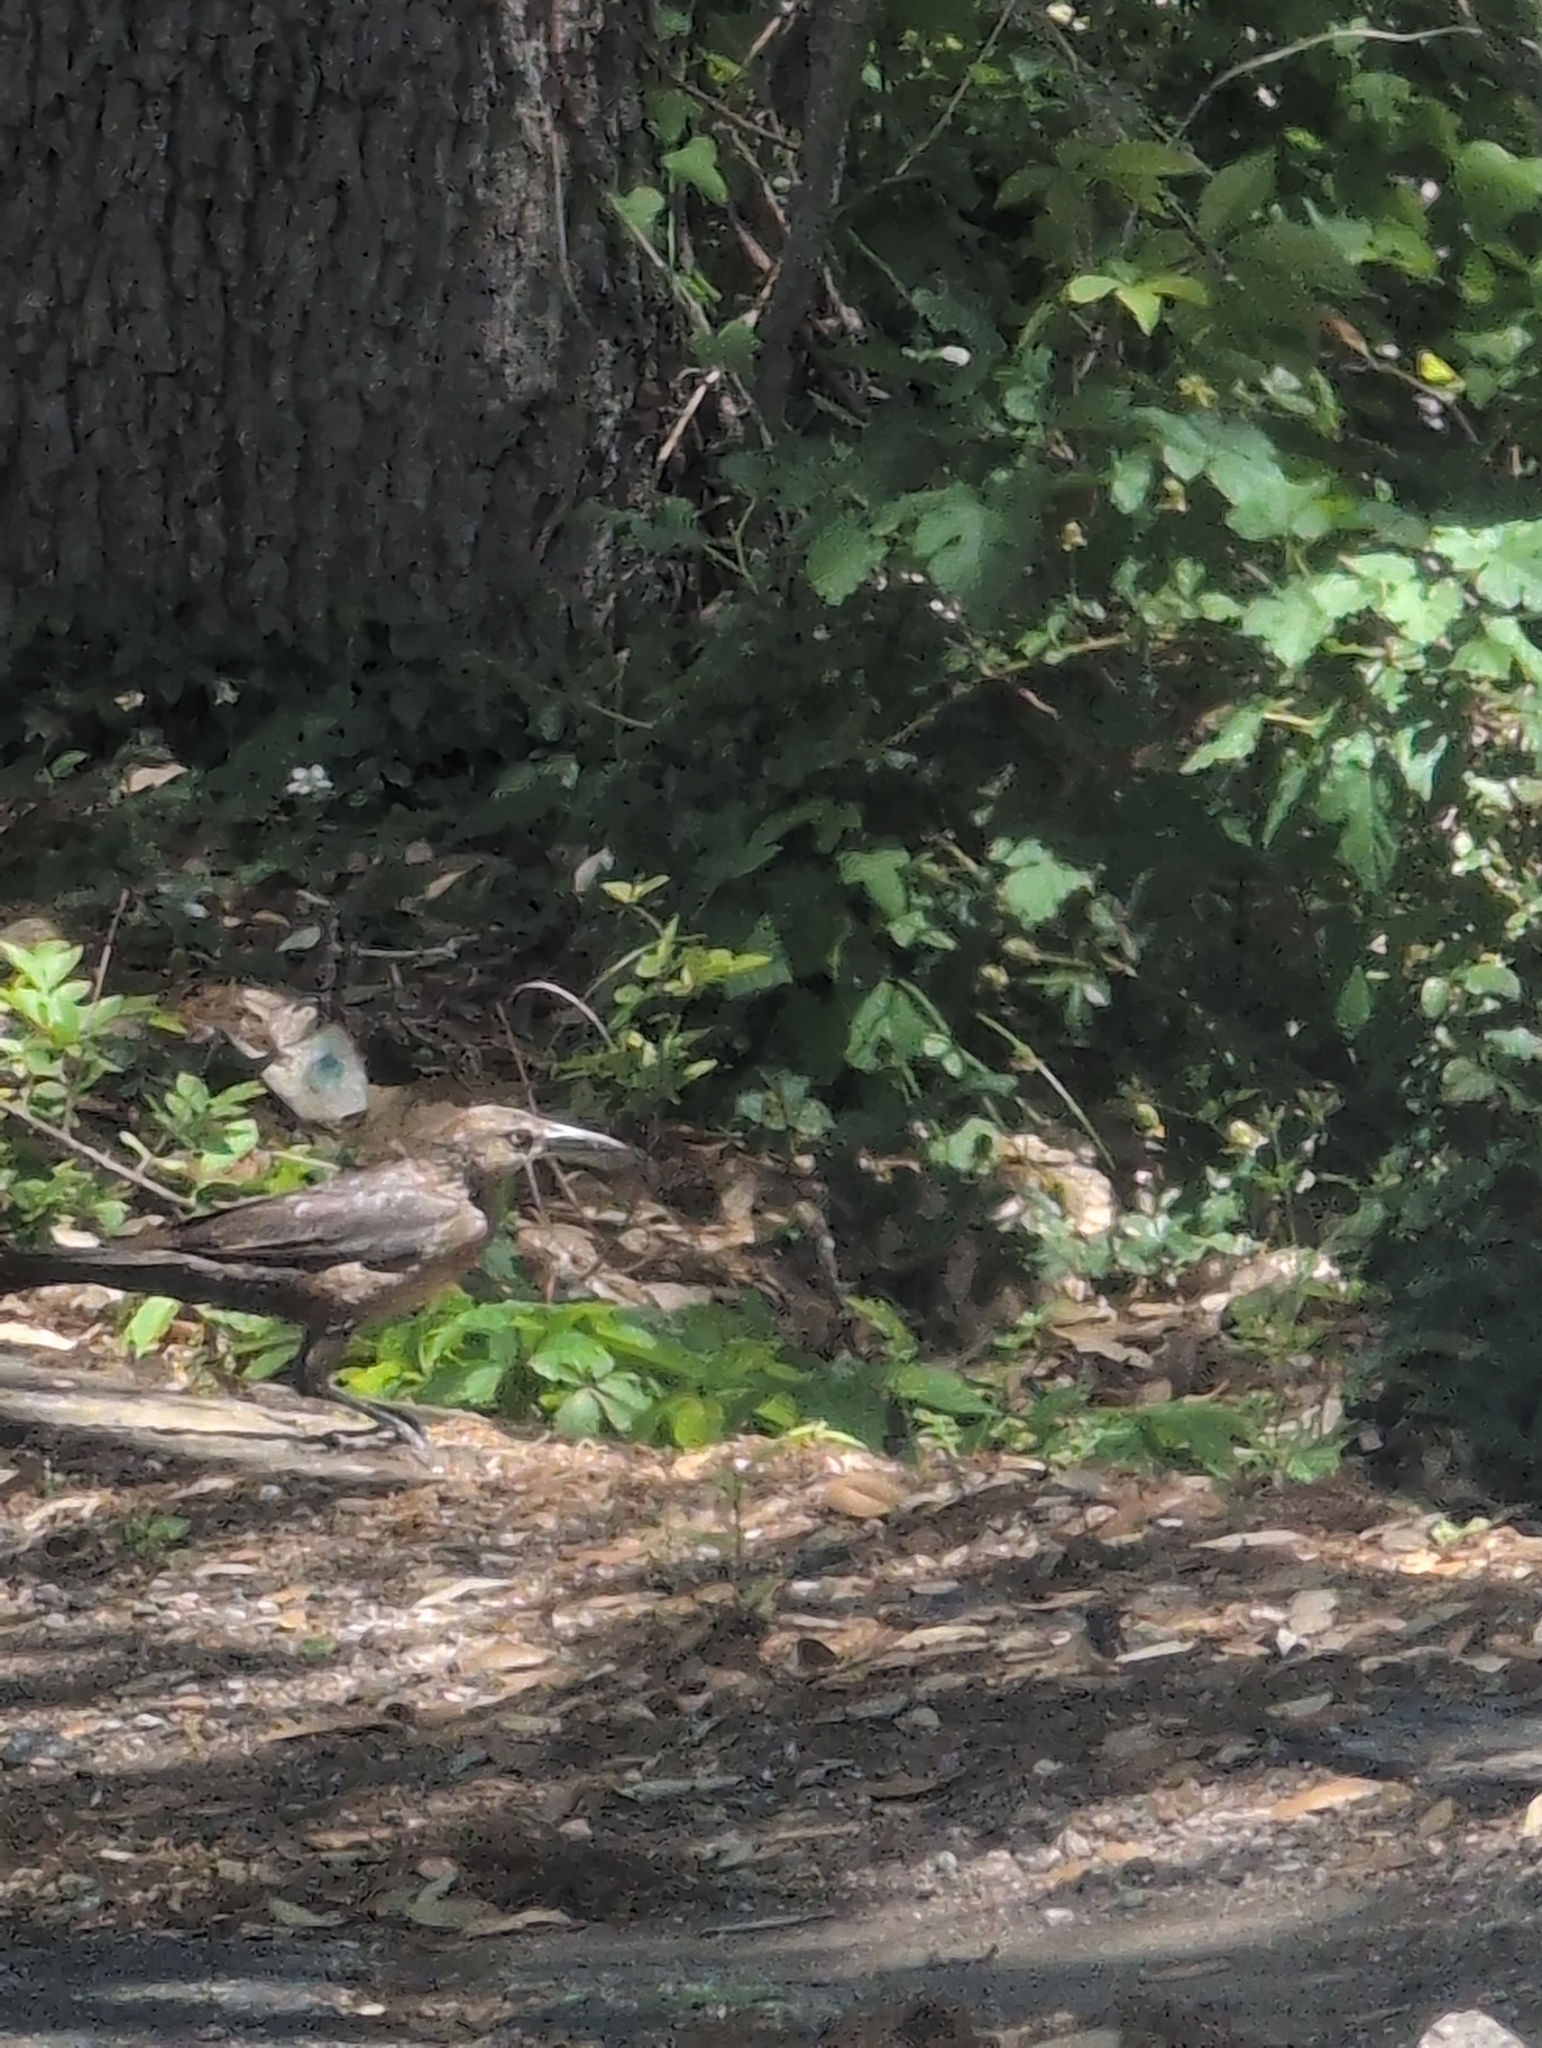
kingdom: Animalia
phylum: Chordata
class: Aves
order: Passeriformes
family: Icteridae
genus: Quiscalus
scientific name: Quiscalus mexicanus
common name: Great-tailed grackle
